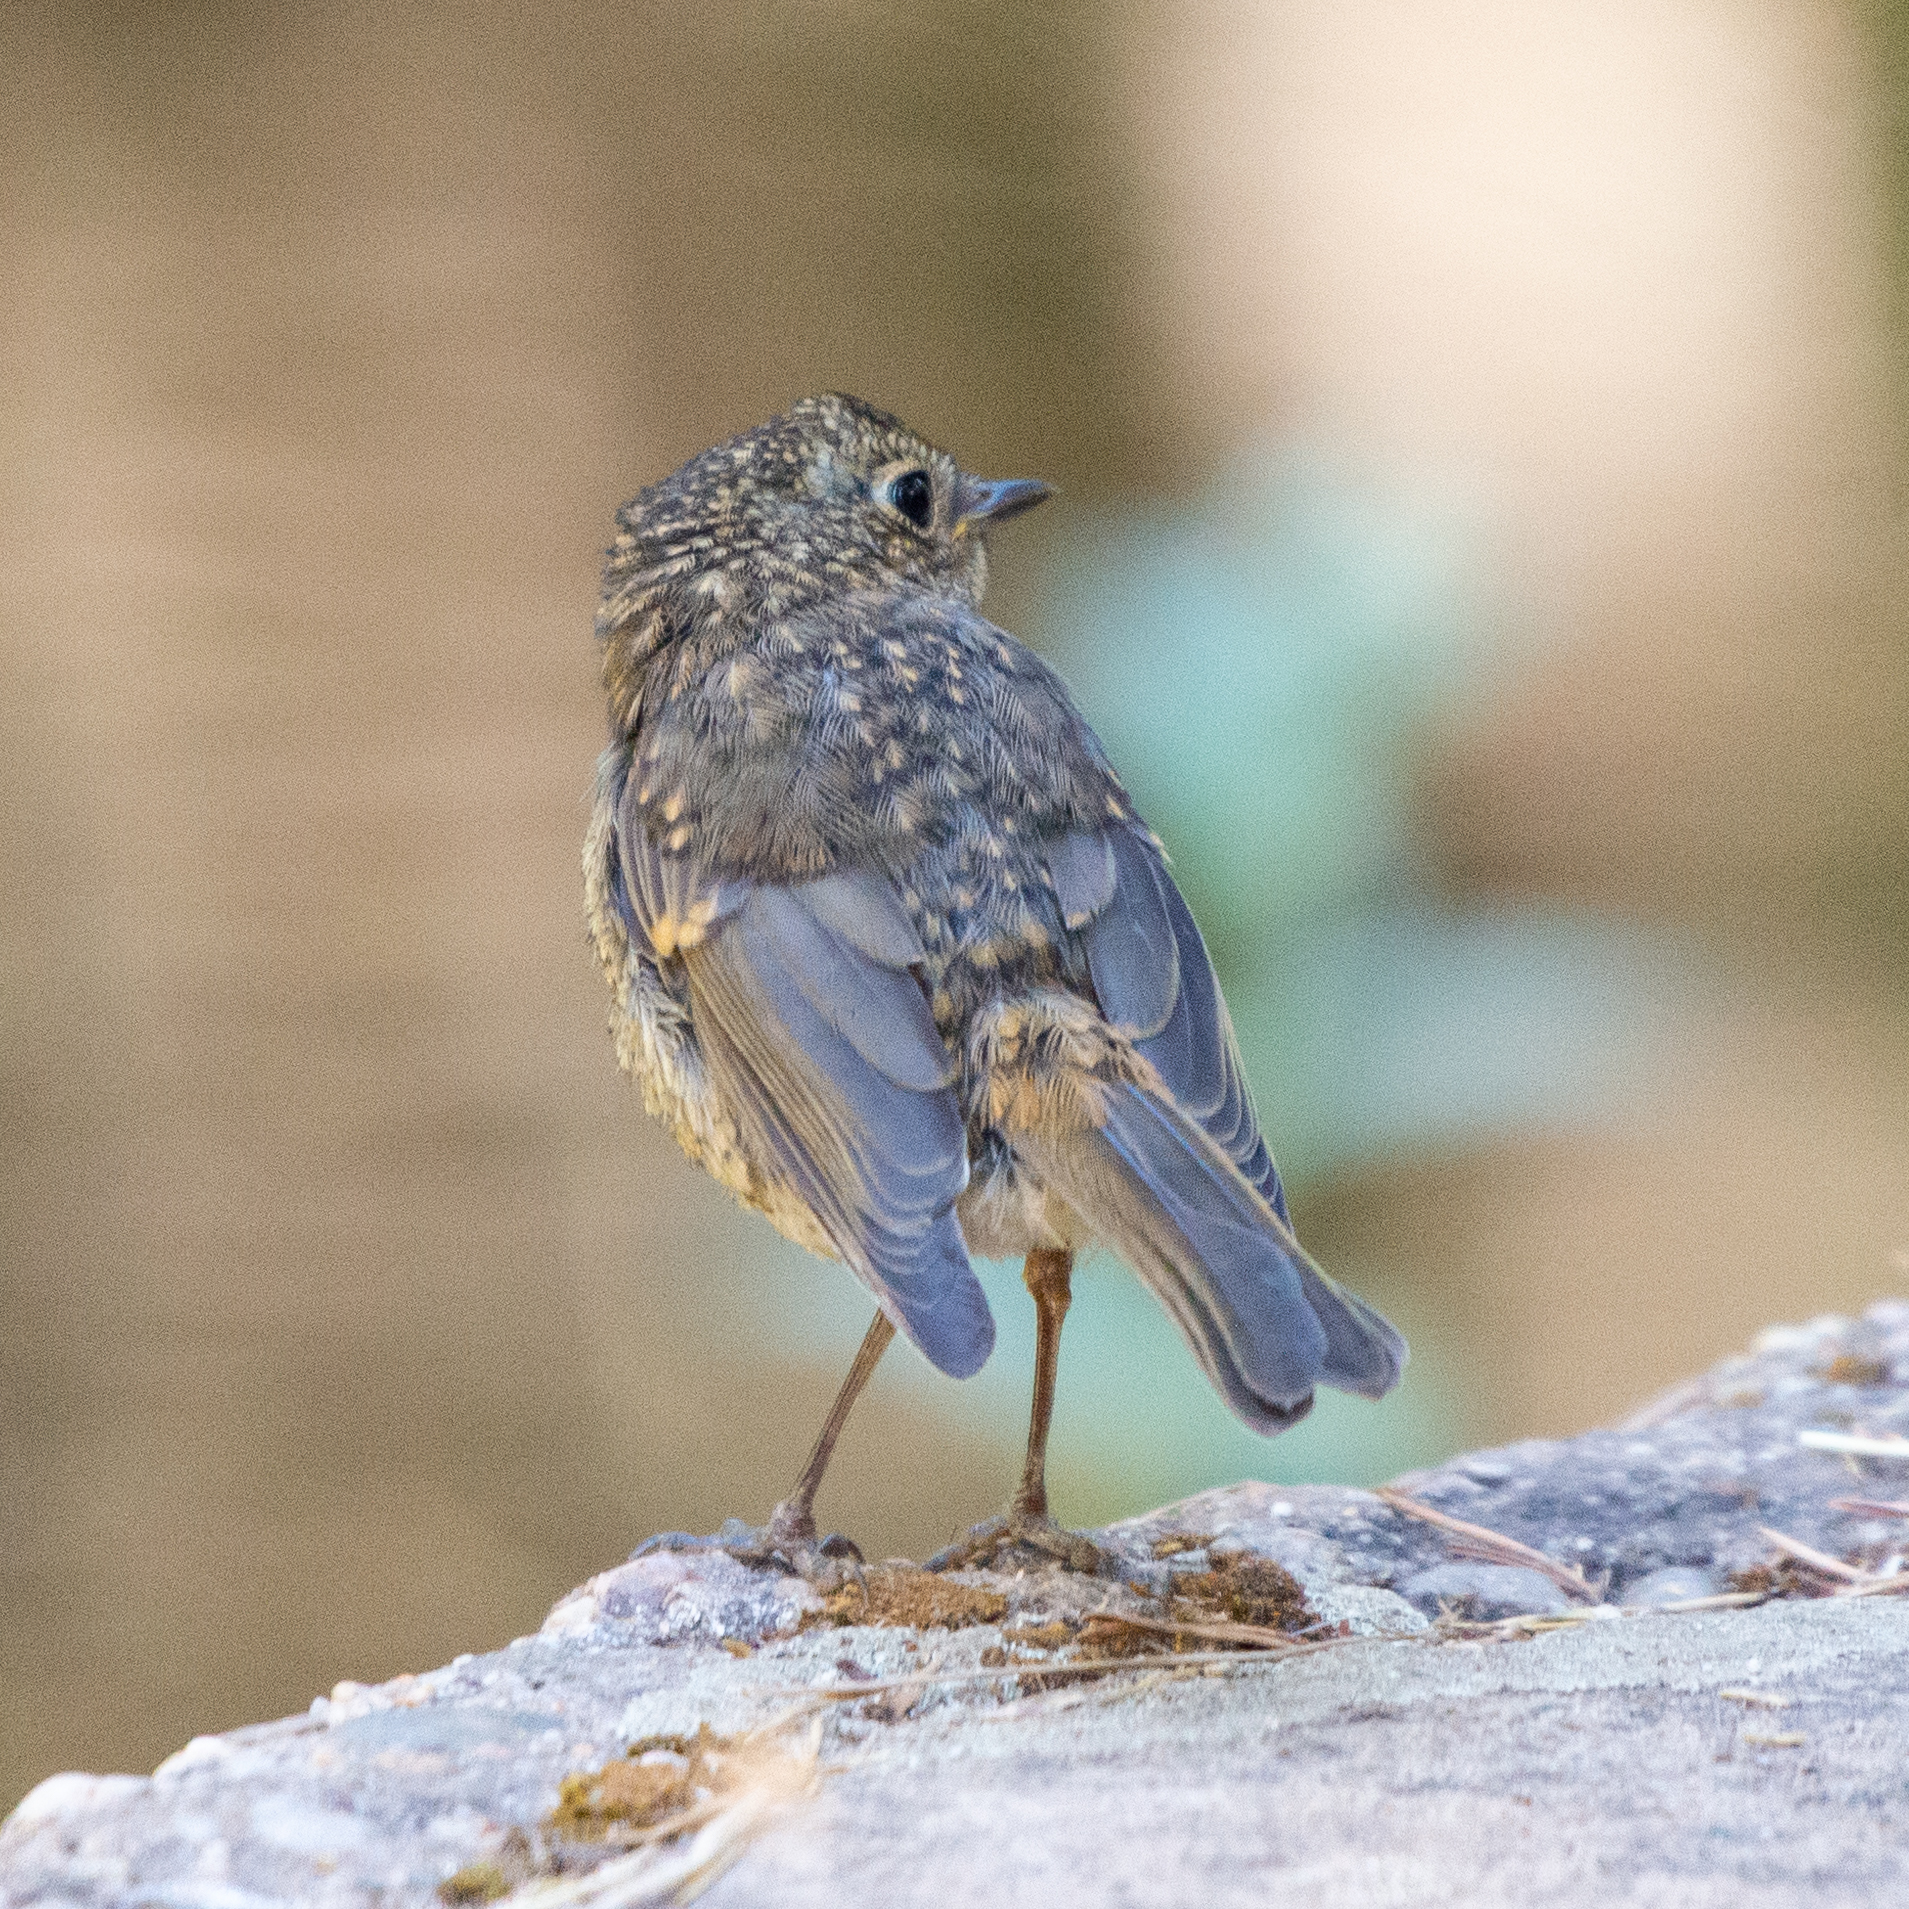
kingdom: Animalia
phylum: Chordata
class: Aves
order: Passeriformes
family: Muscicapidae
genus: Erithacus
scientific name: Erithacus rubecula
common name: European robin
